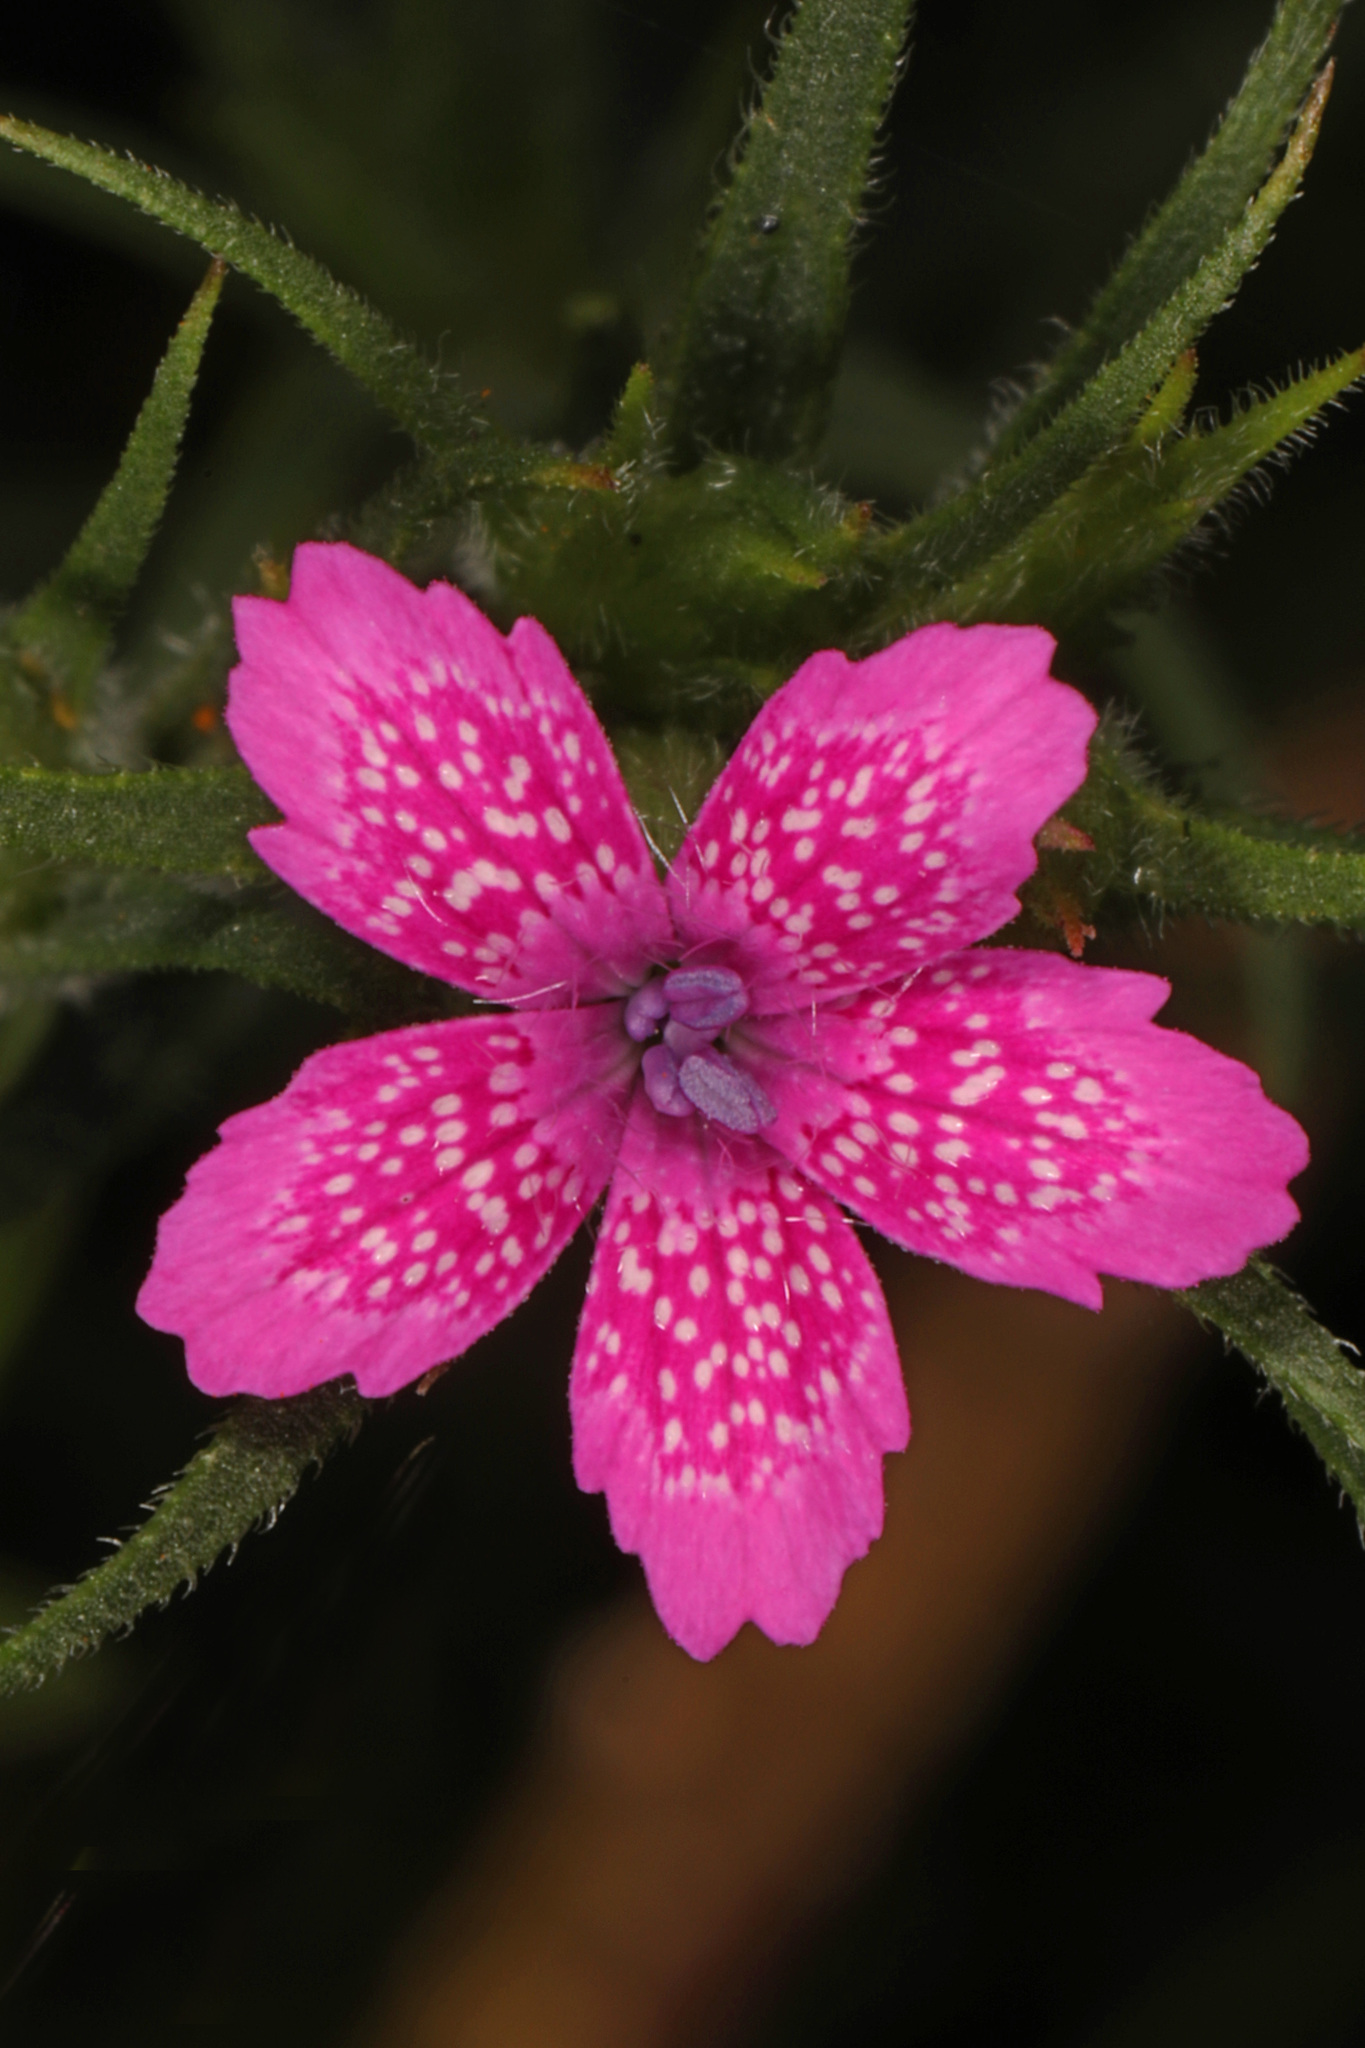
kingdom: Plantae
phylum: Tracheophyta
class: Magnoliopsida
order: Caryophyllales
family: Caryophyllaceae
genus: Dianthus
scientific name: Dianthus armeria
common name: Deptford pink
